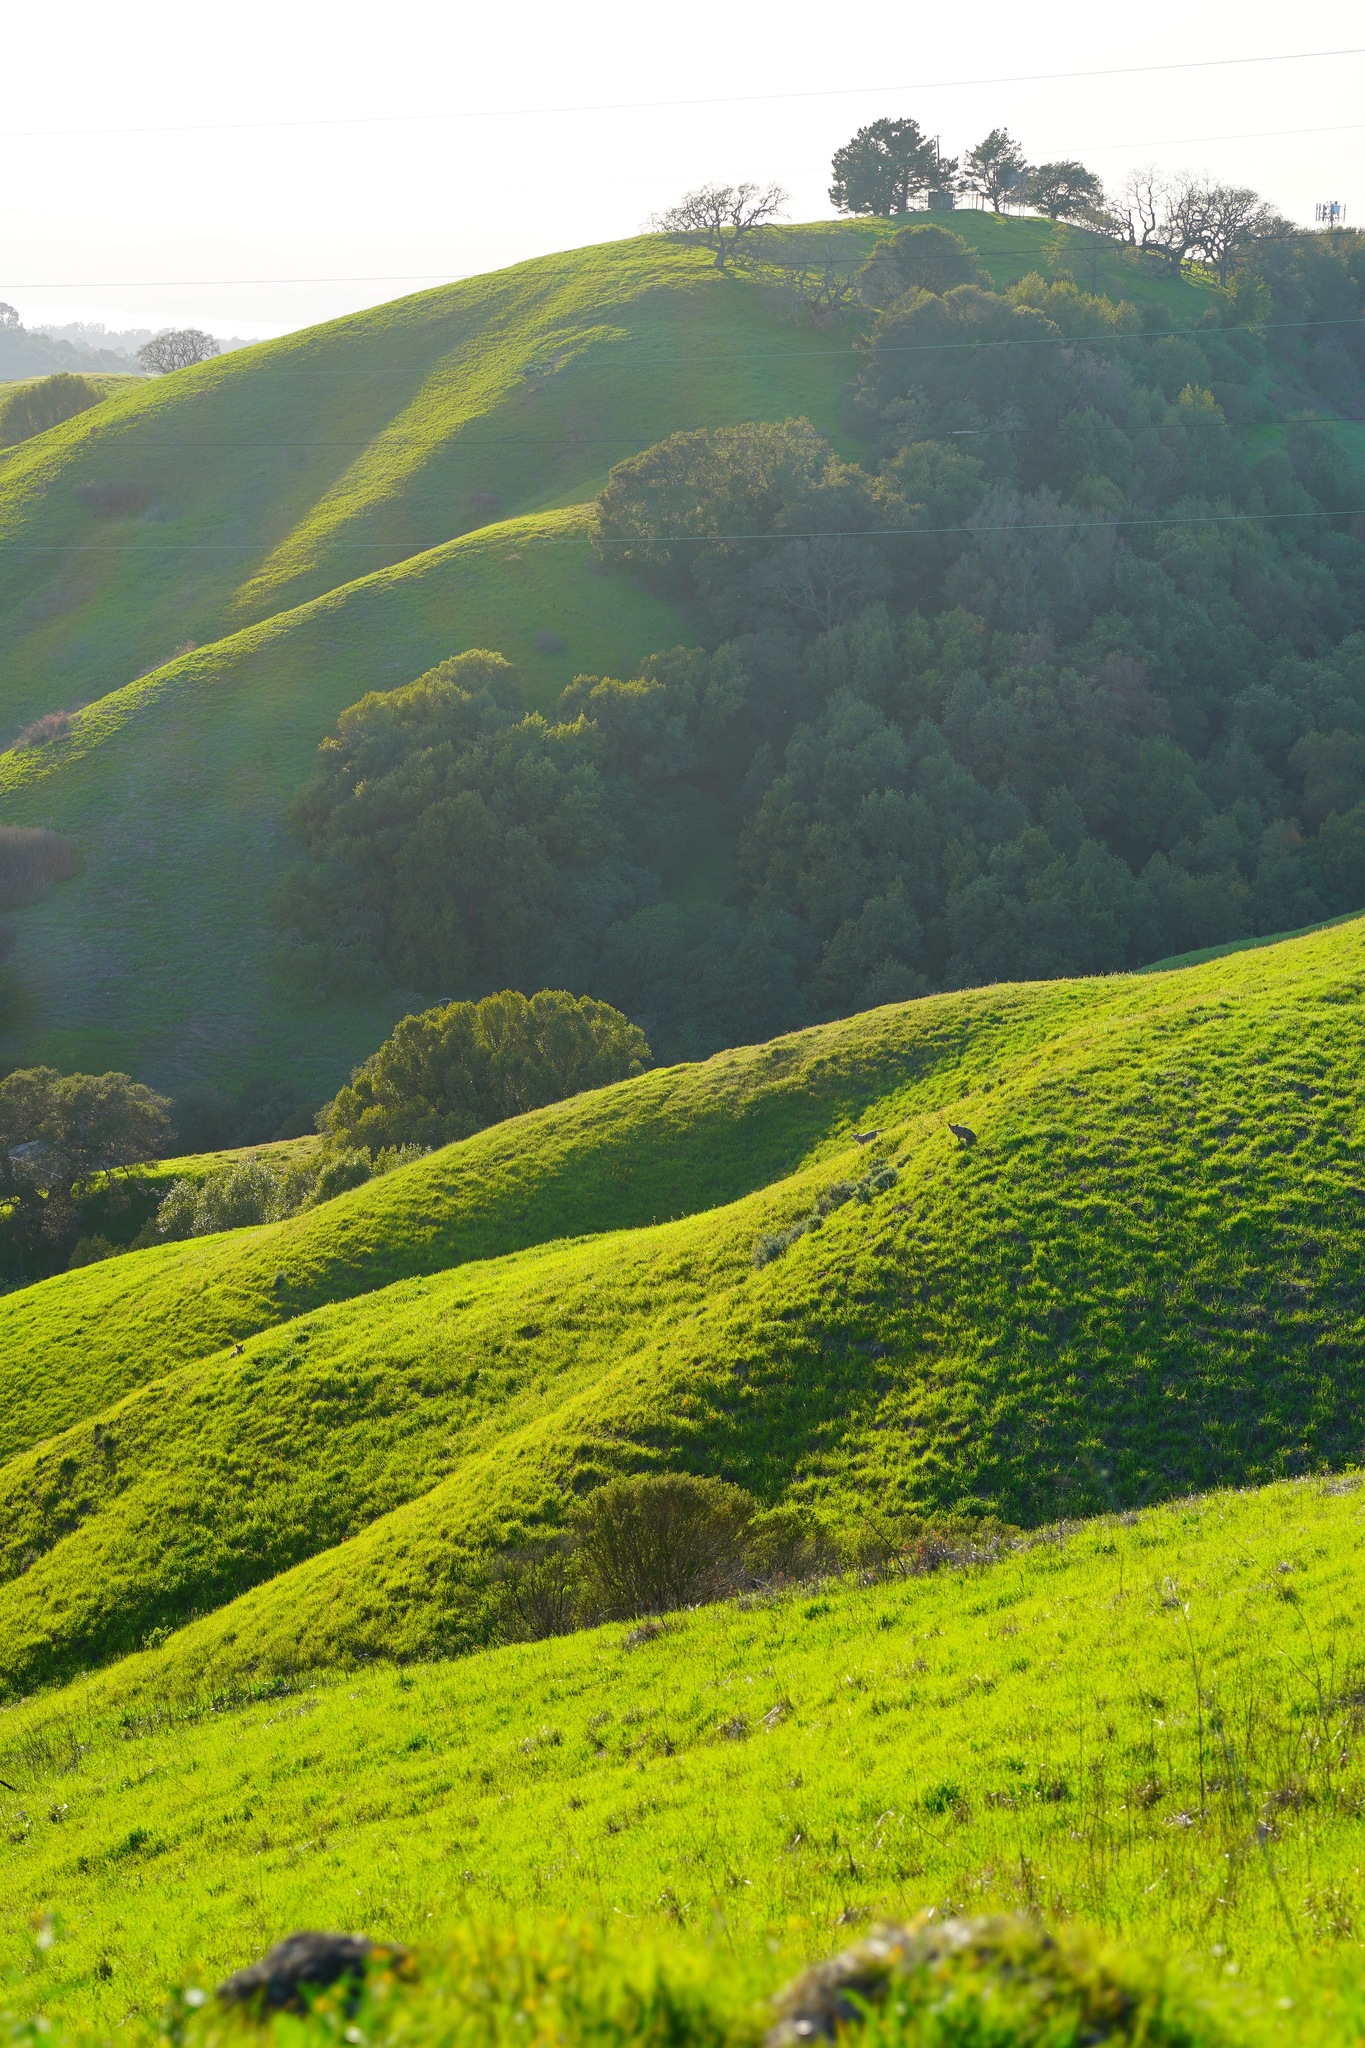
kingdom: Animalia
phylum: Chordata
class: Mammalia
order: Carnivora
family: Canidae
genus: Canis
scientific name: Canis latrans
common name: Coyote
